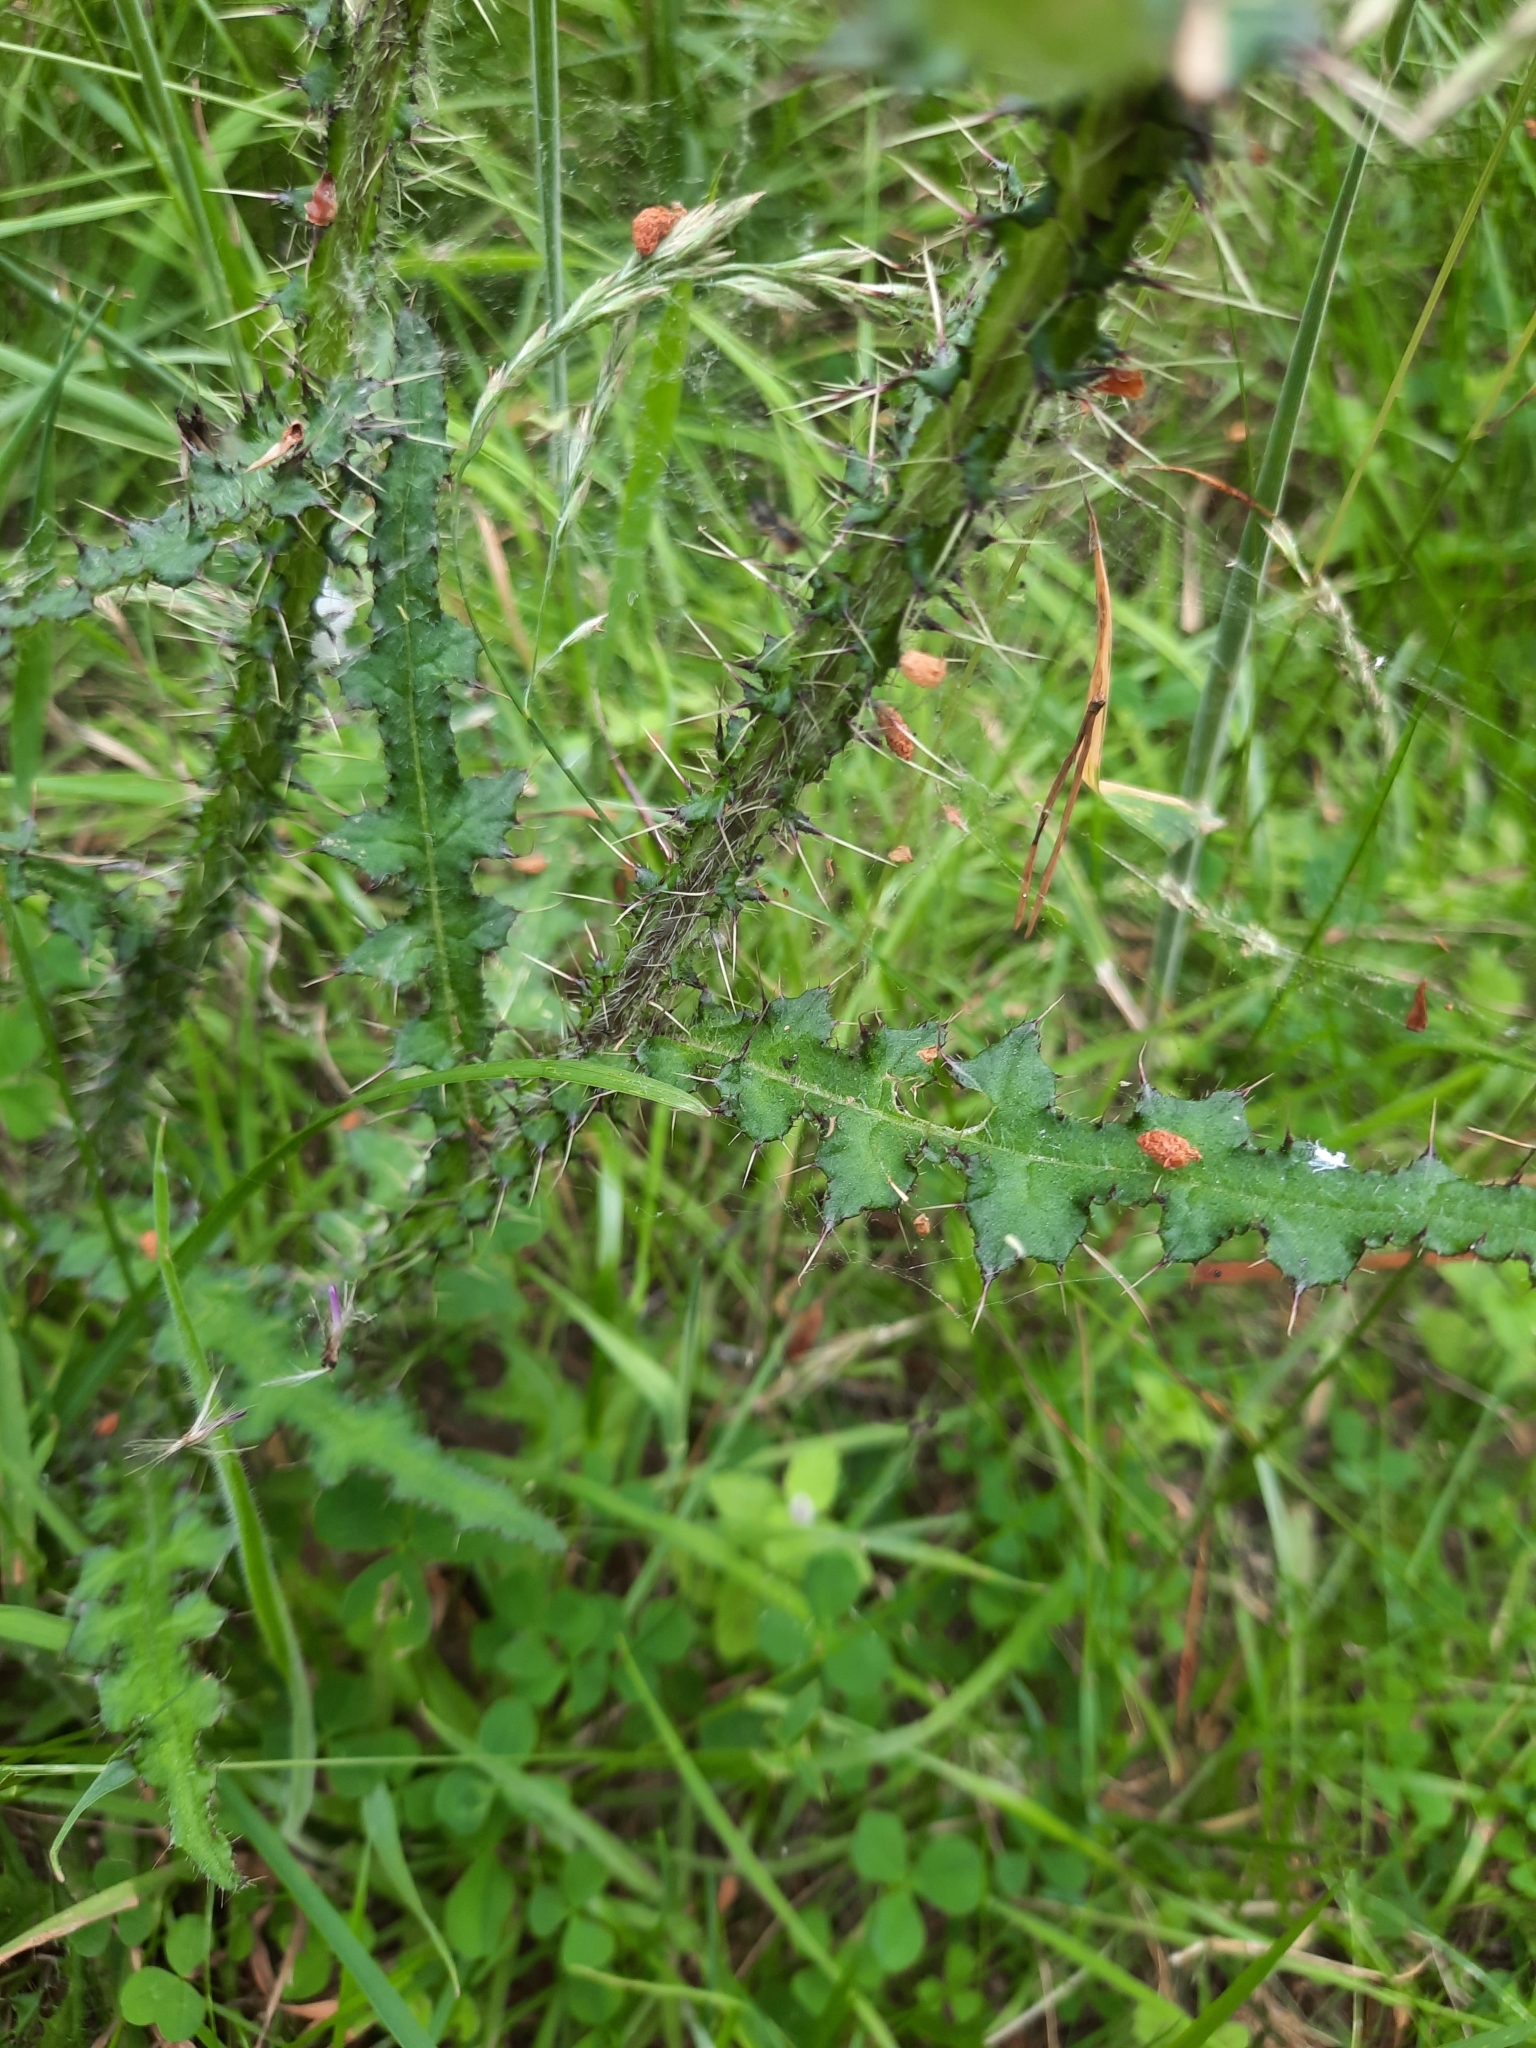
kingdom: Plantae
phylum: Tracheophyta
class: Magnoliopsida
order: Asterales
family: Asteraceae
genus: Cirsium
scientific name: Cirsium palustre
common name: Marsh thistle
